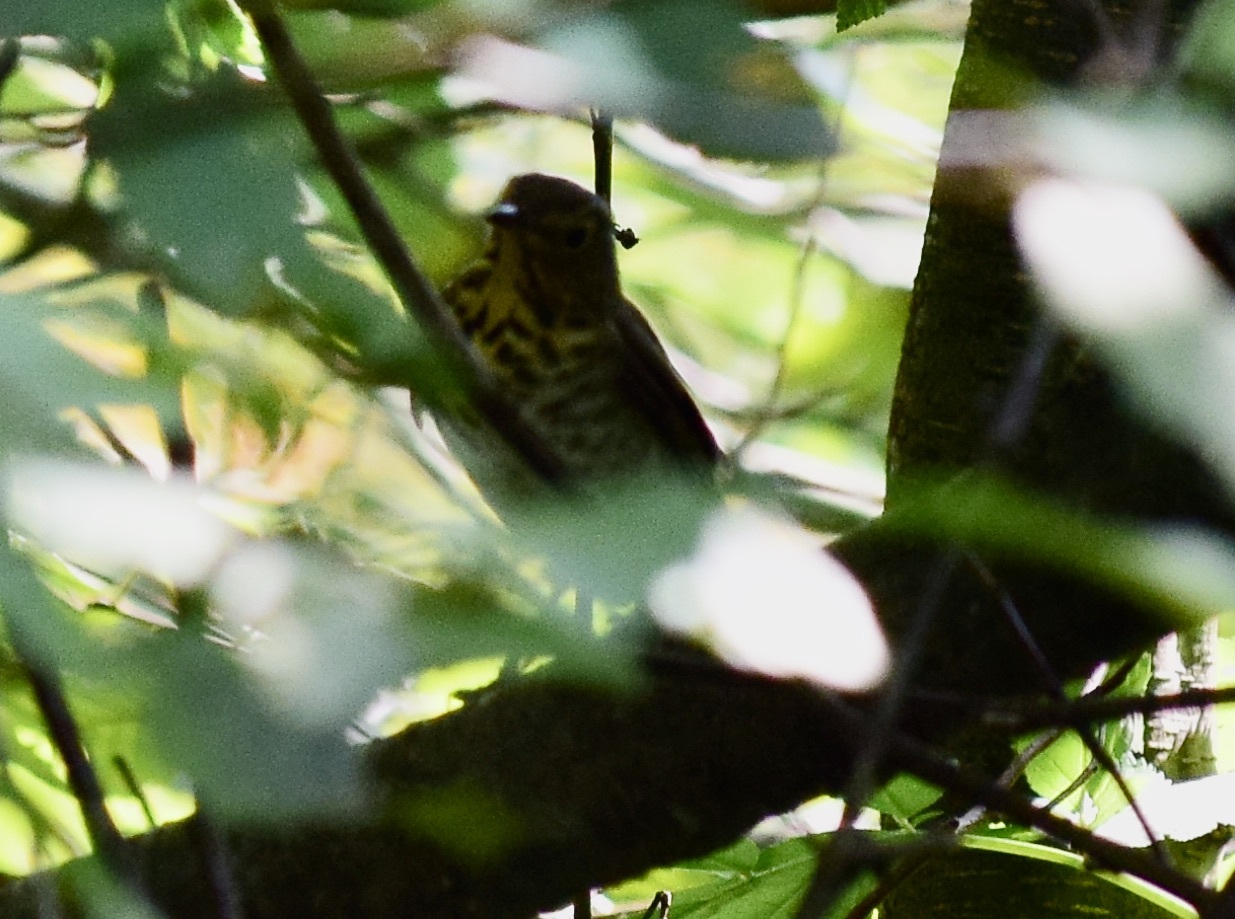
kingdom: Animalia
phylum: Chordata
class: Aves
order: Passeriformes
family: Turdidae
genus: Catharus
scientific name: Catharus ustulatus
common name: Swainson's thrush
